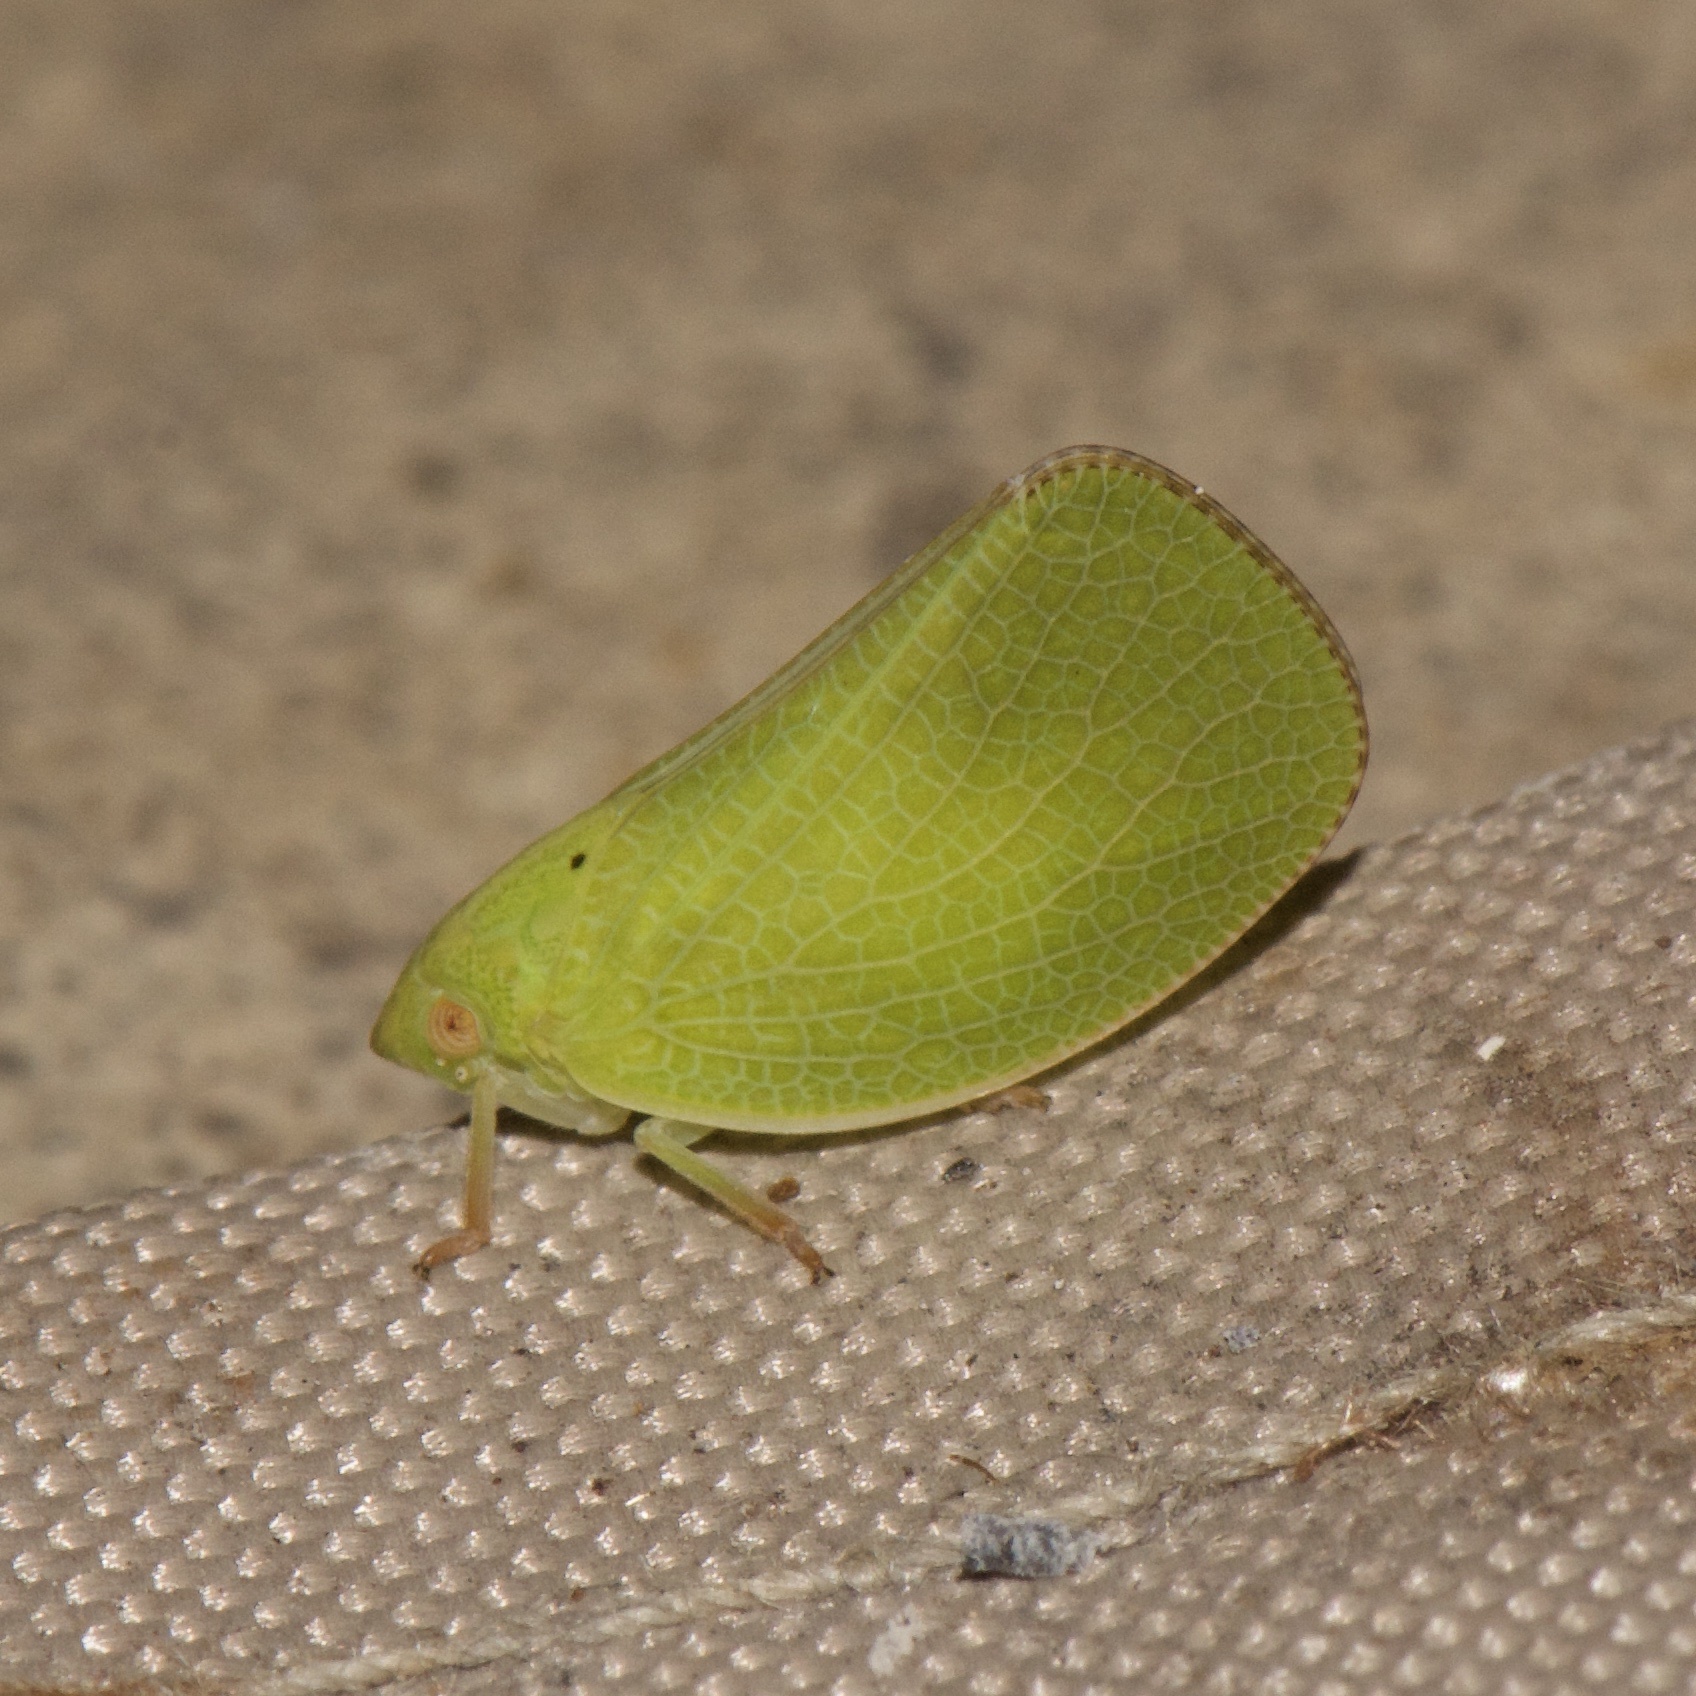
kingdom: Animalia
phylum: Arthropoda
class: Insecta
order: Hemiptera
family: Acanaloniidae
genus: Acanalonia
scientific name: Acanalonia conica
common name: Green cone-headed planthopper
